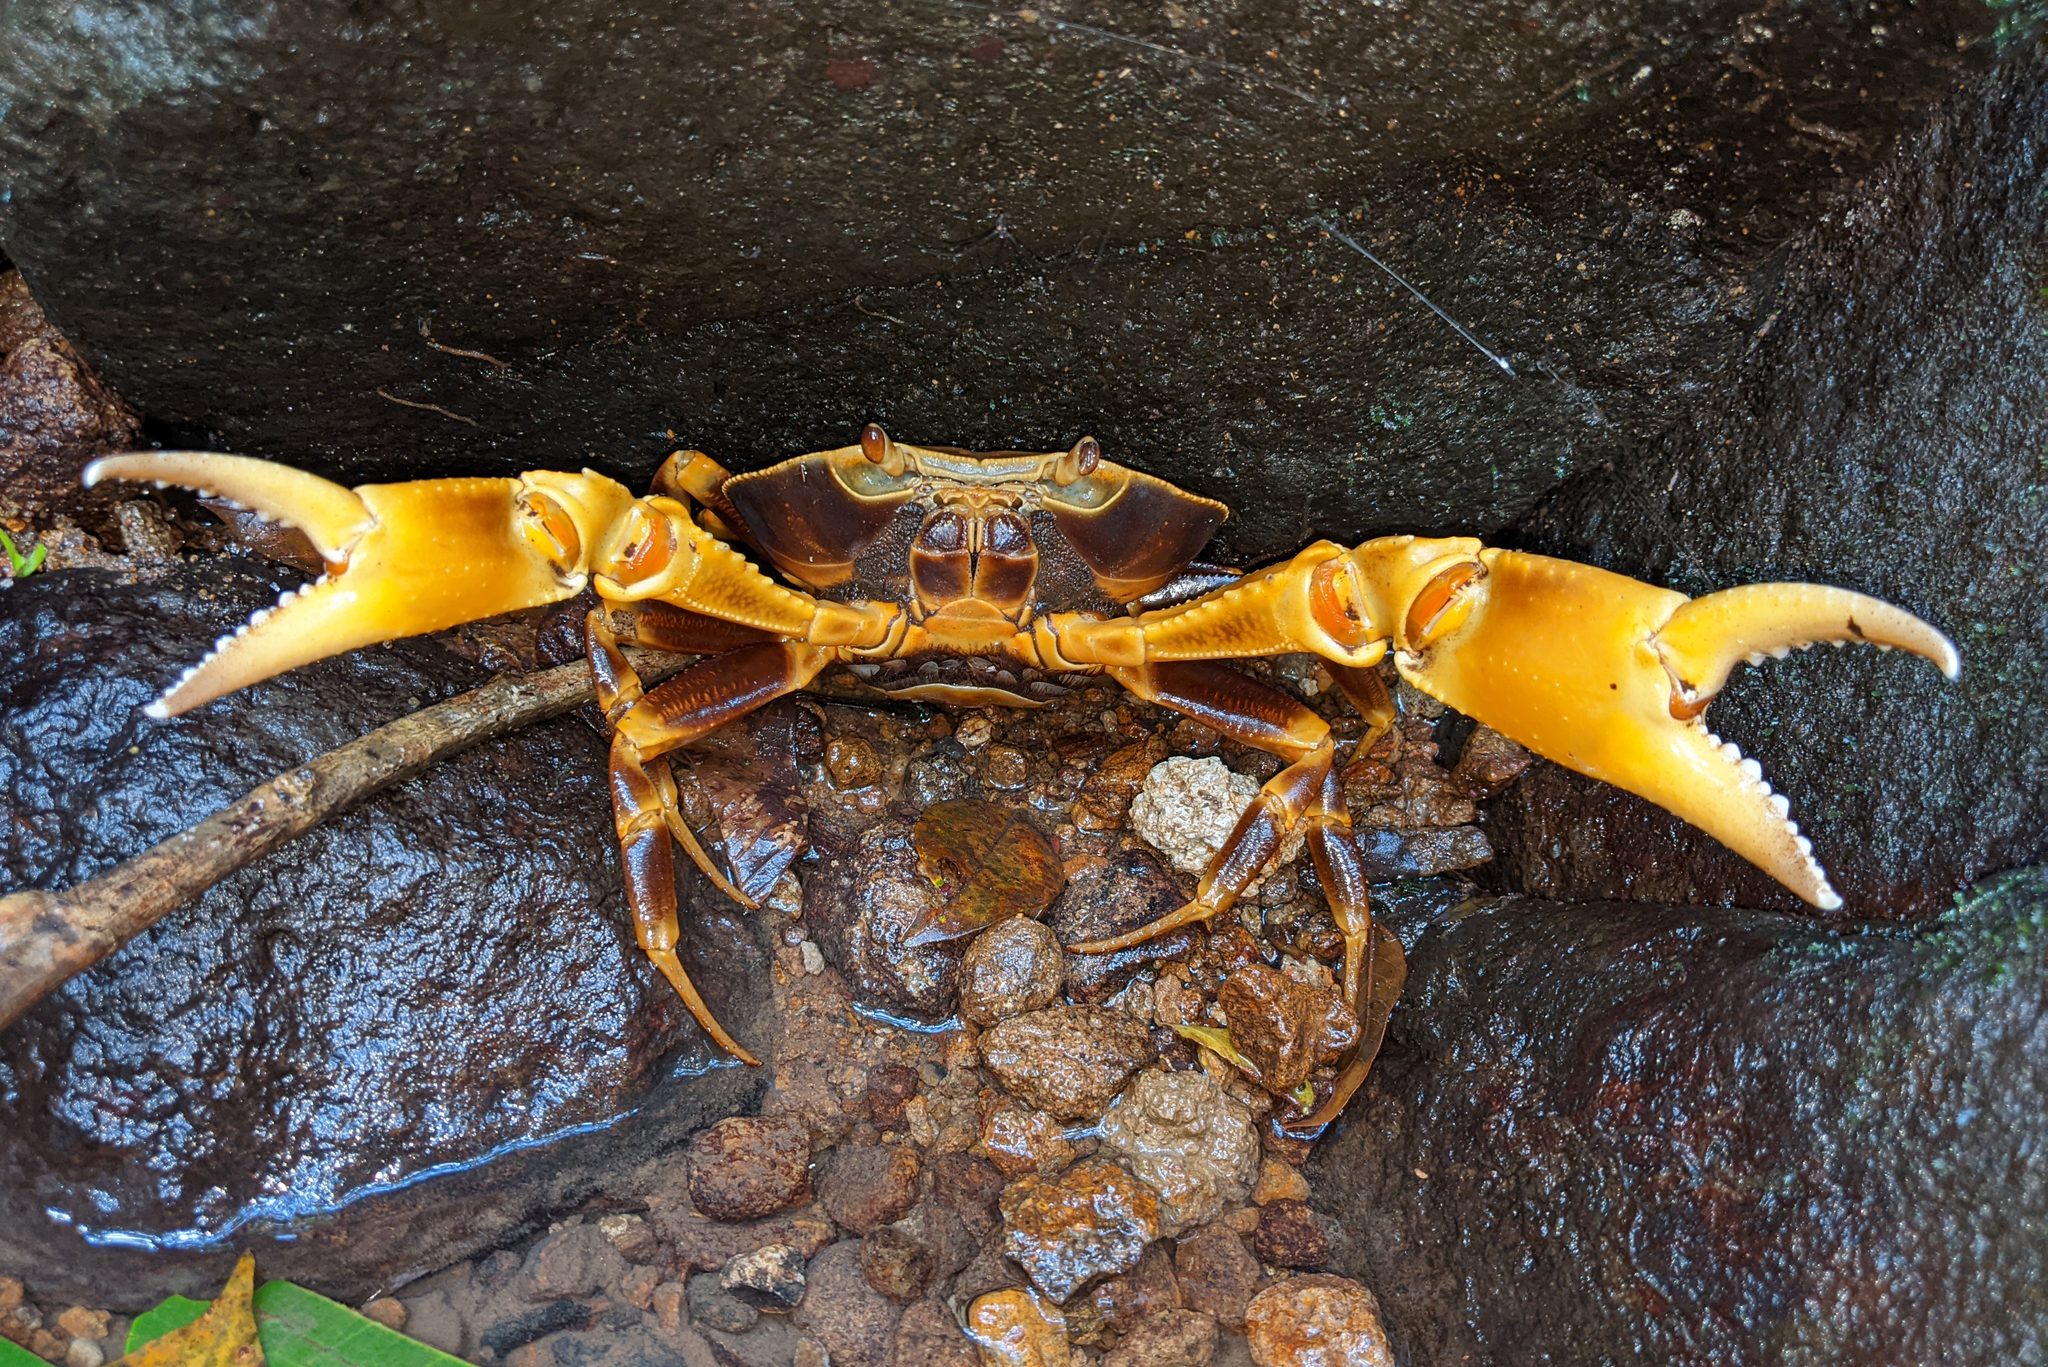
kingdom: Animalia
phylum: Arthropoda
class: Malacostraca
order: Decapoda
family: Pseudothelphusidae
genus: Guinotia
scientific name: Guinotia dentata
